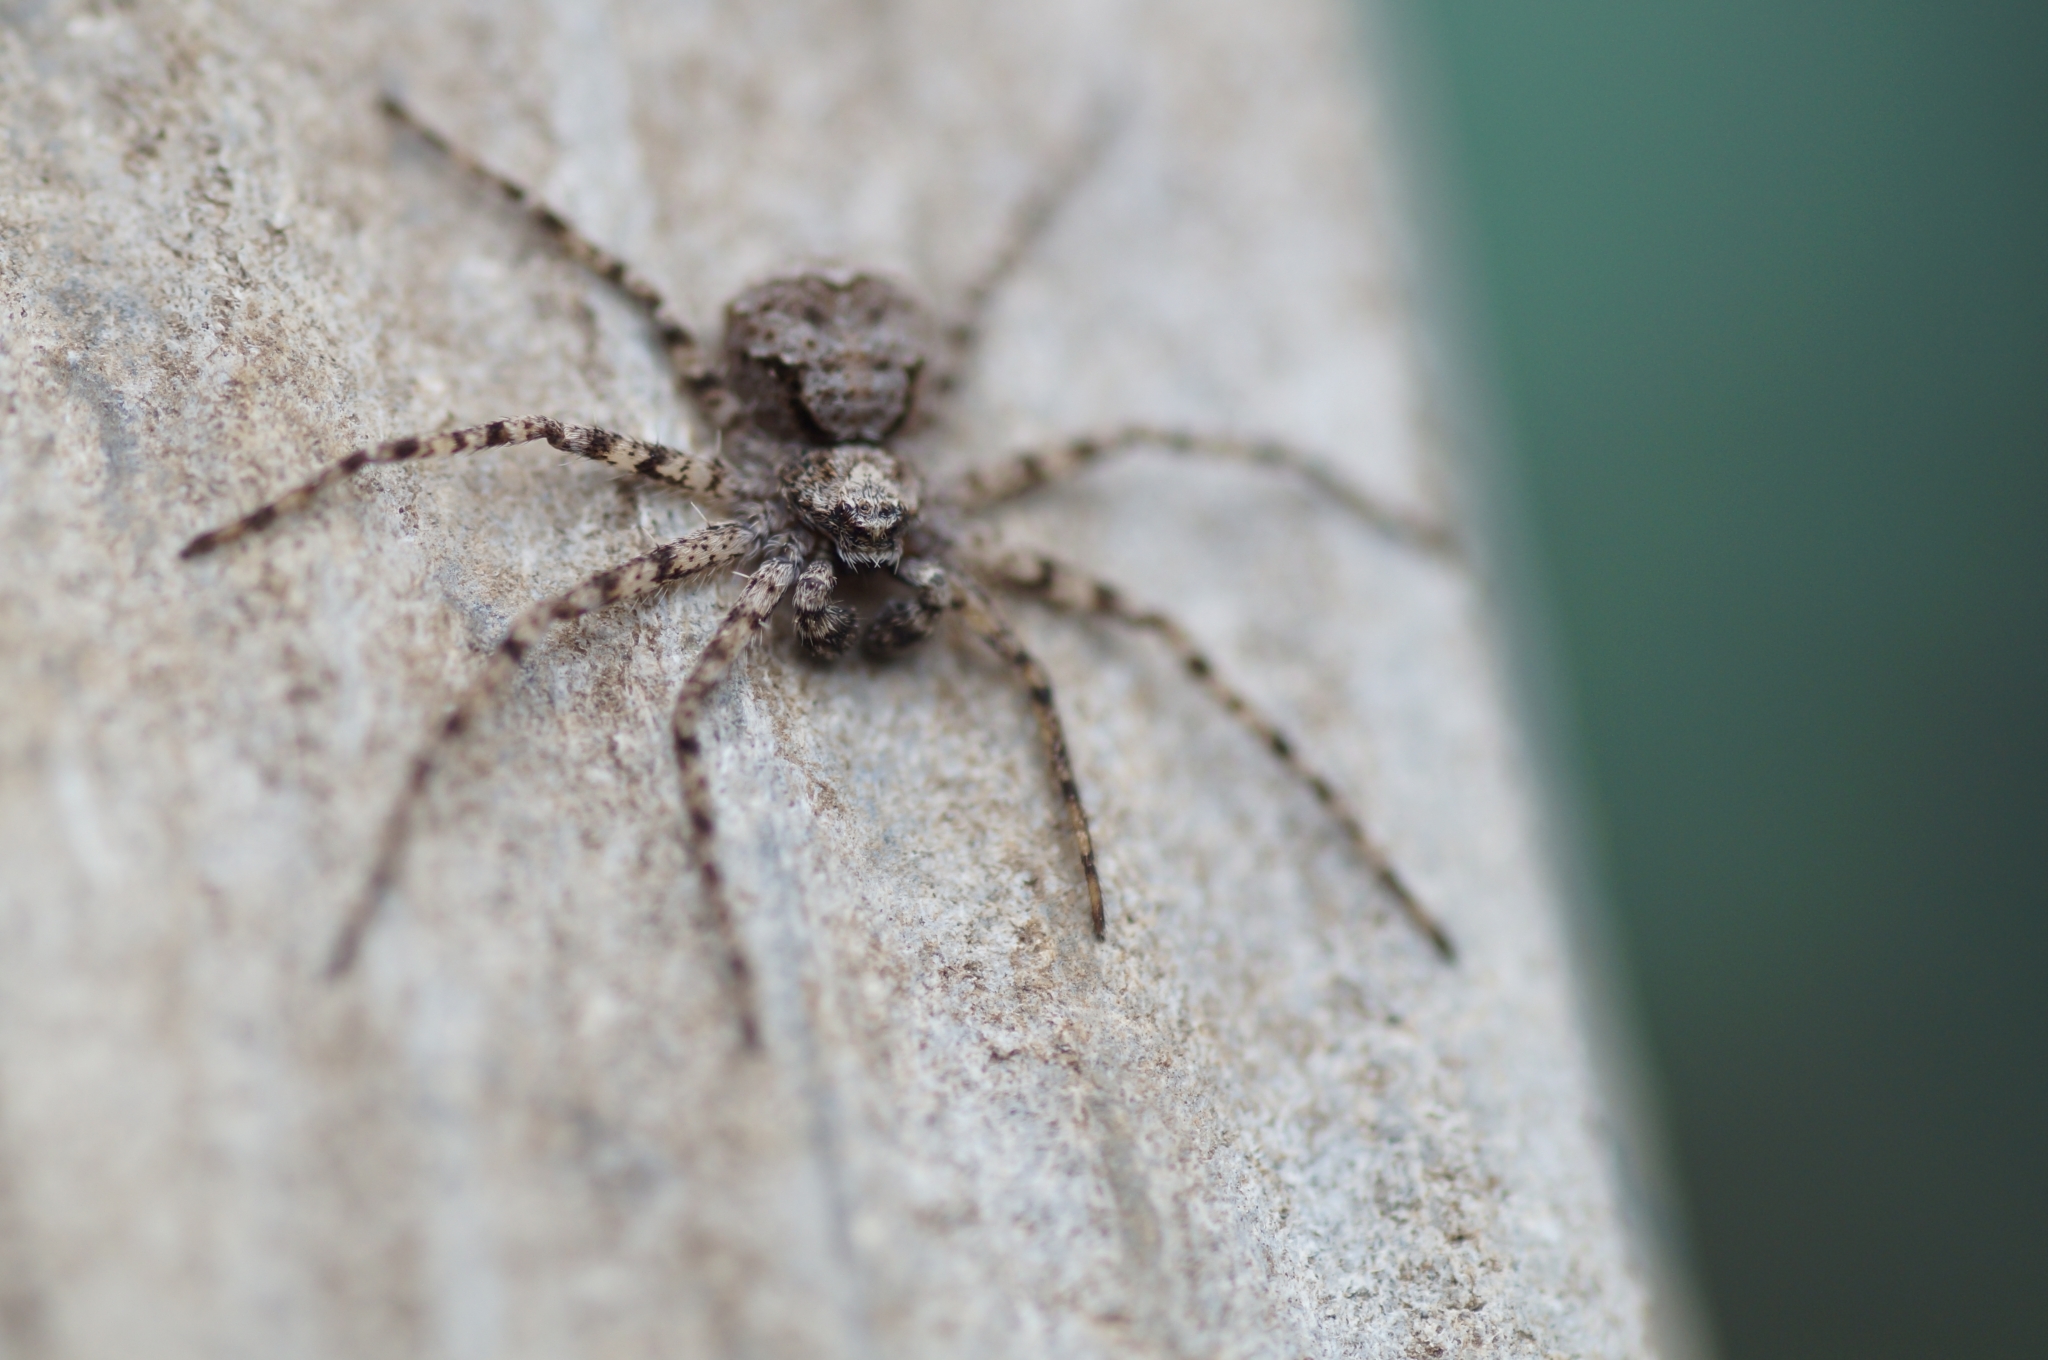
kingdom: Animalia
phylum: Arthropoda
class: Arachnida
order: Araneae
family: Philodromidae
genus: Philodromus
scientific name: Philodromus poecilus
